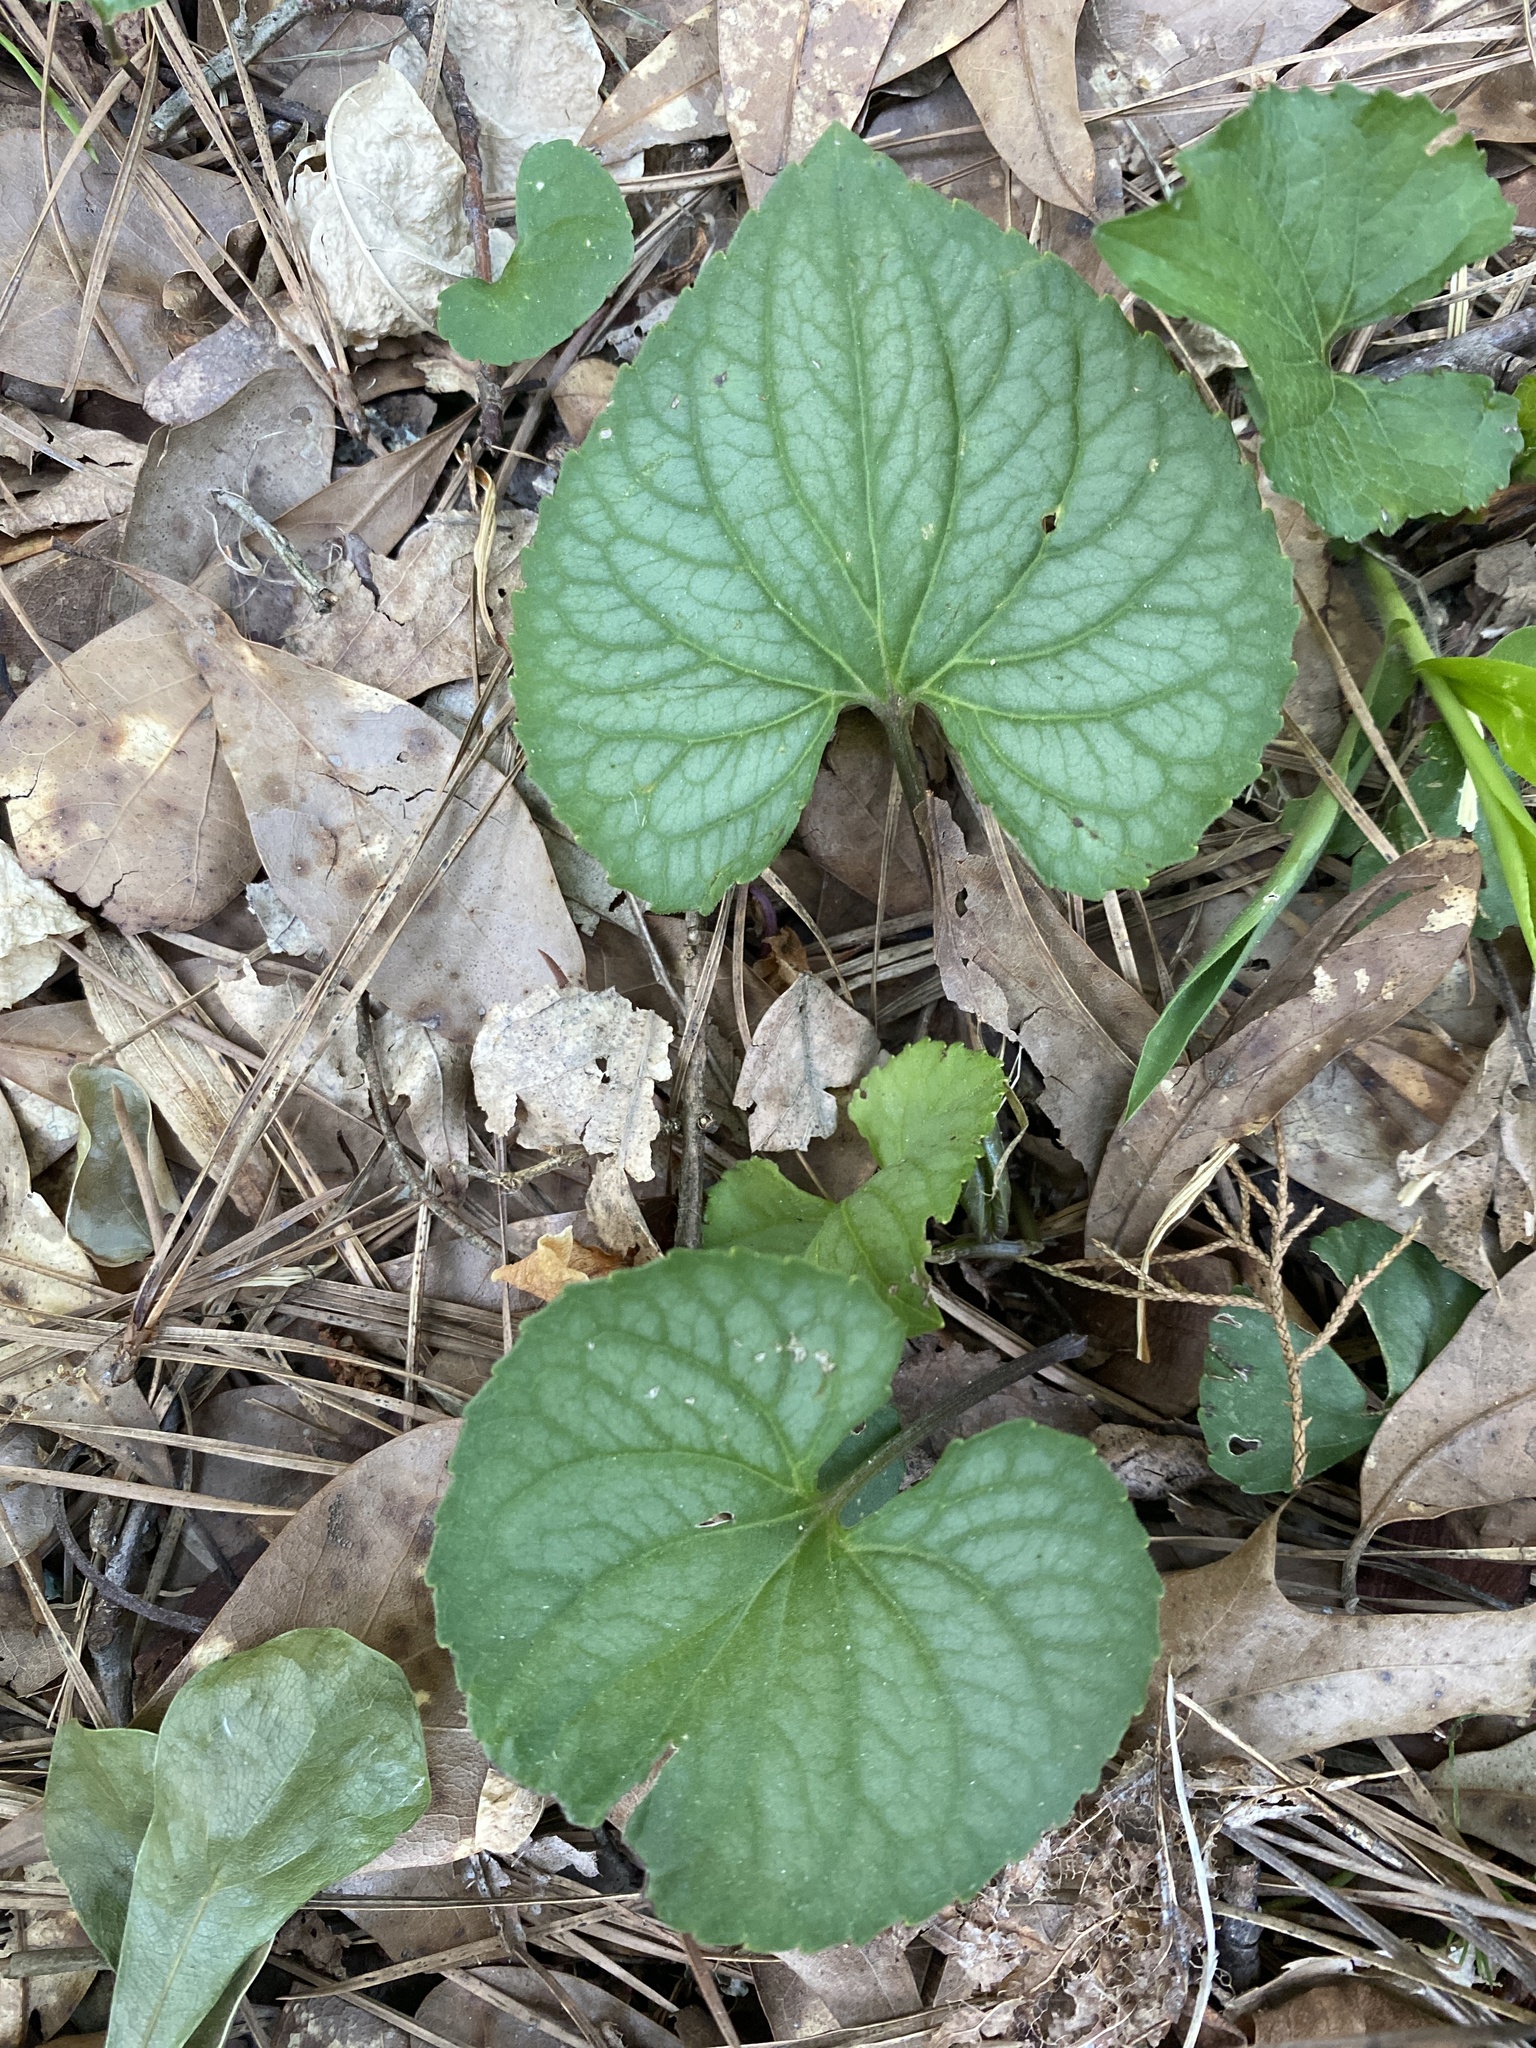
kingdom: Plantae
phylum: Tracheophyta
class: Magnoliopsida
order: Malpighiales
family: Violaceae
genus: Viola
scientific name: Viola walteri
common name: Prostrate southern violet
